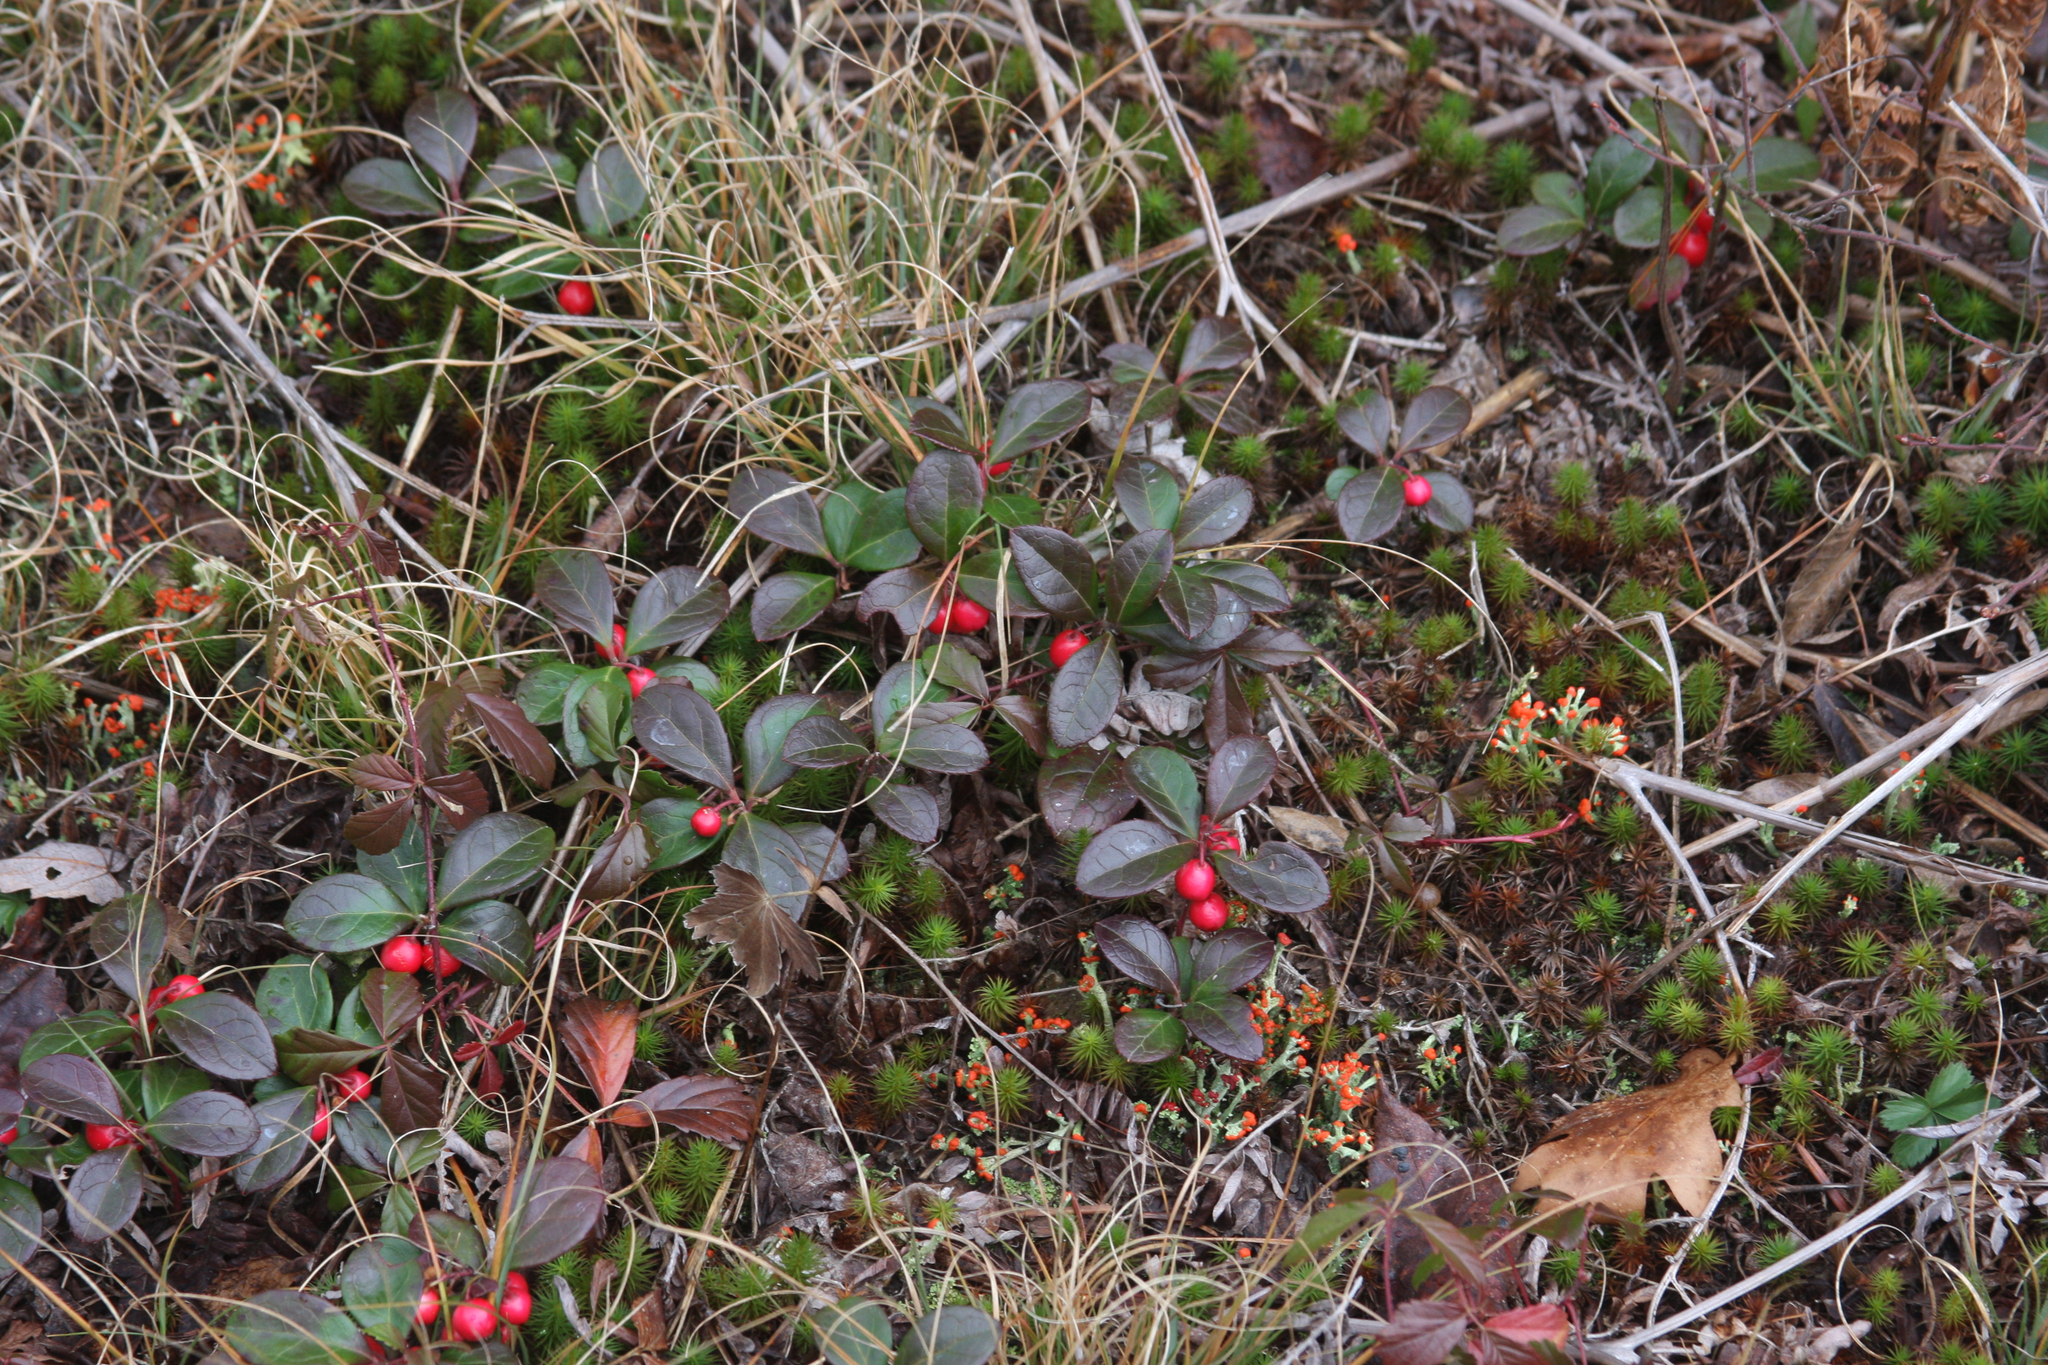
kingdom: Plantae
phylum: Tracheophyta
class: Magnoliopsida
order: Ericales
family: Ericaceae
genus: Gaultheria
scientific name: Gaultheria procumbens
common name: Checkerberry
